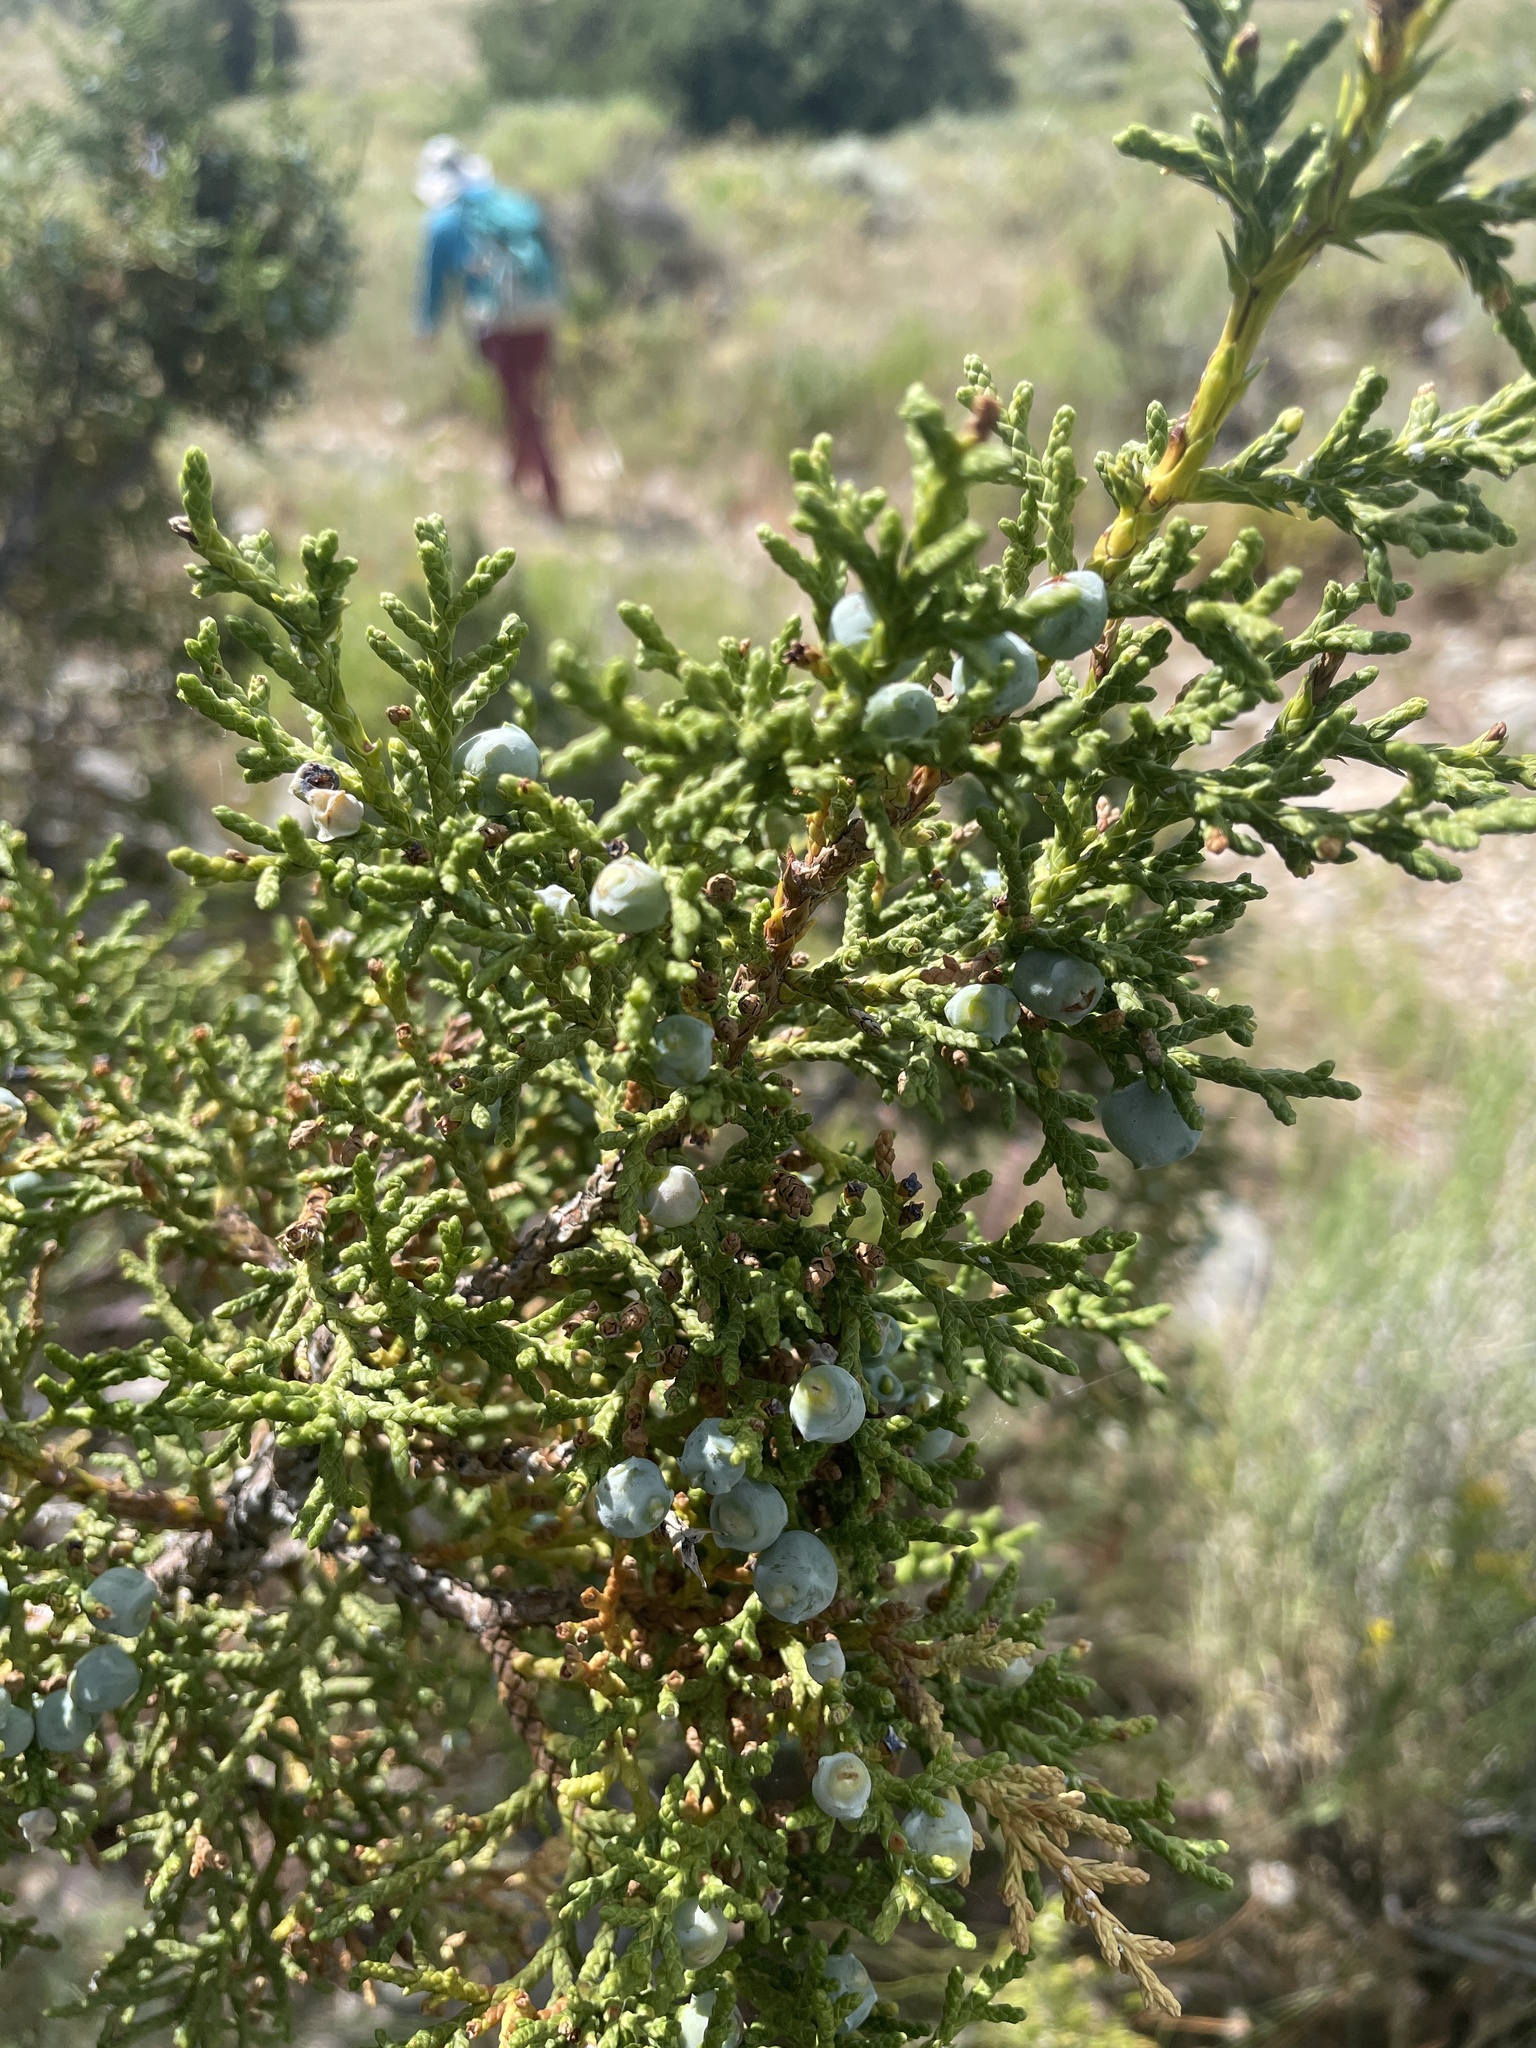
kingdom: Plantae
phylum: Tracheophyta
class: Pinopsida
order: Pinales
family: Cupressaceae
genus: Juniperus
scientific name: Juniperus osteosperma
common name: Utah juniper
